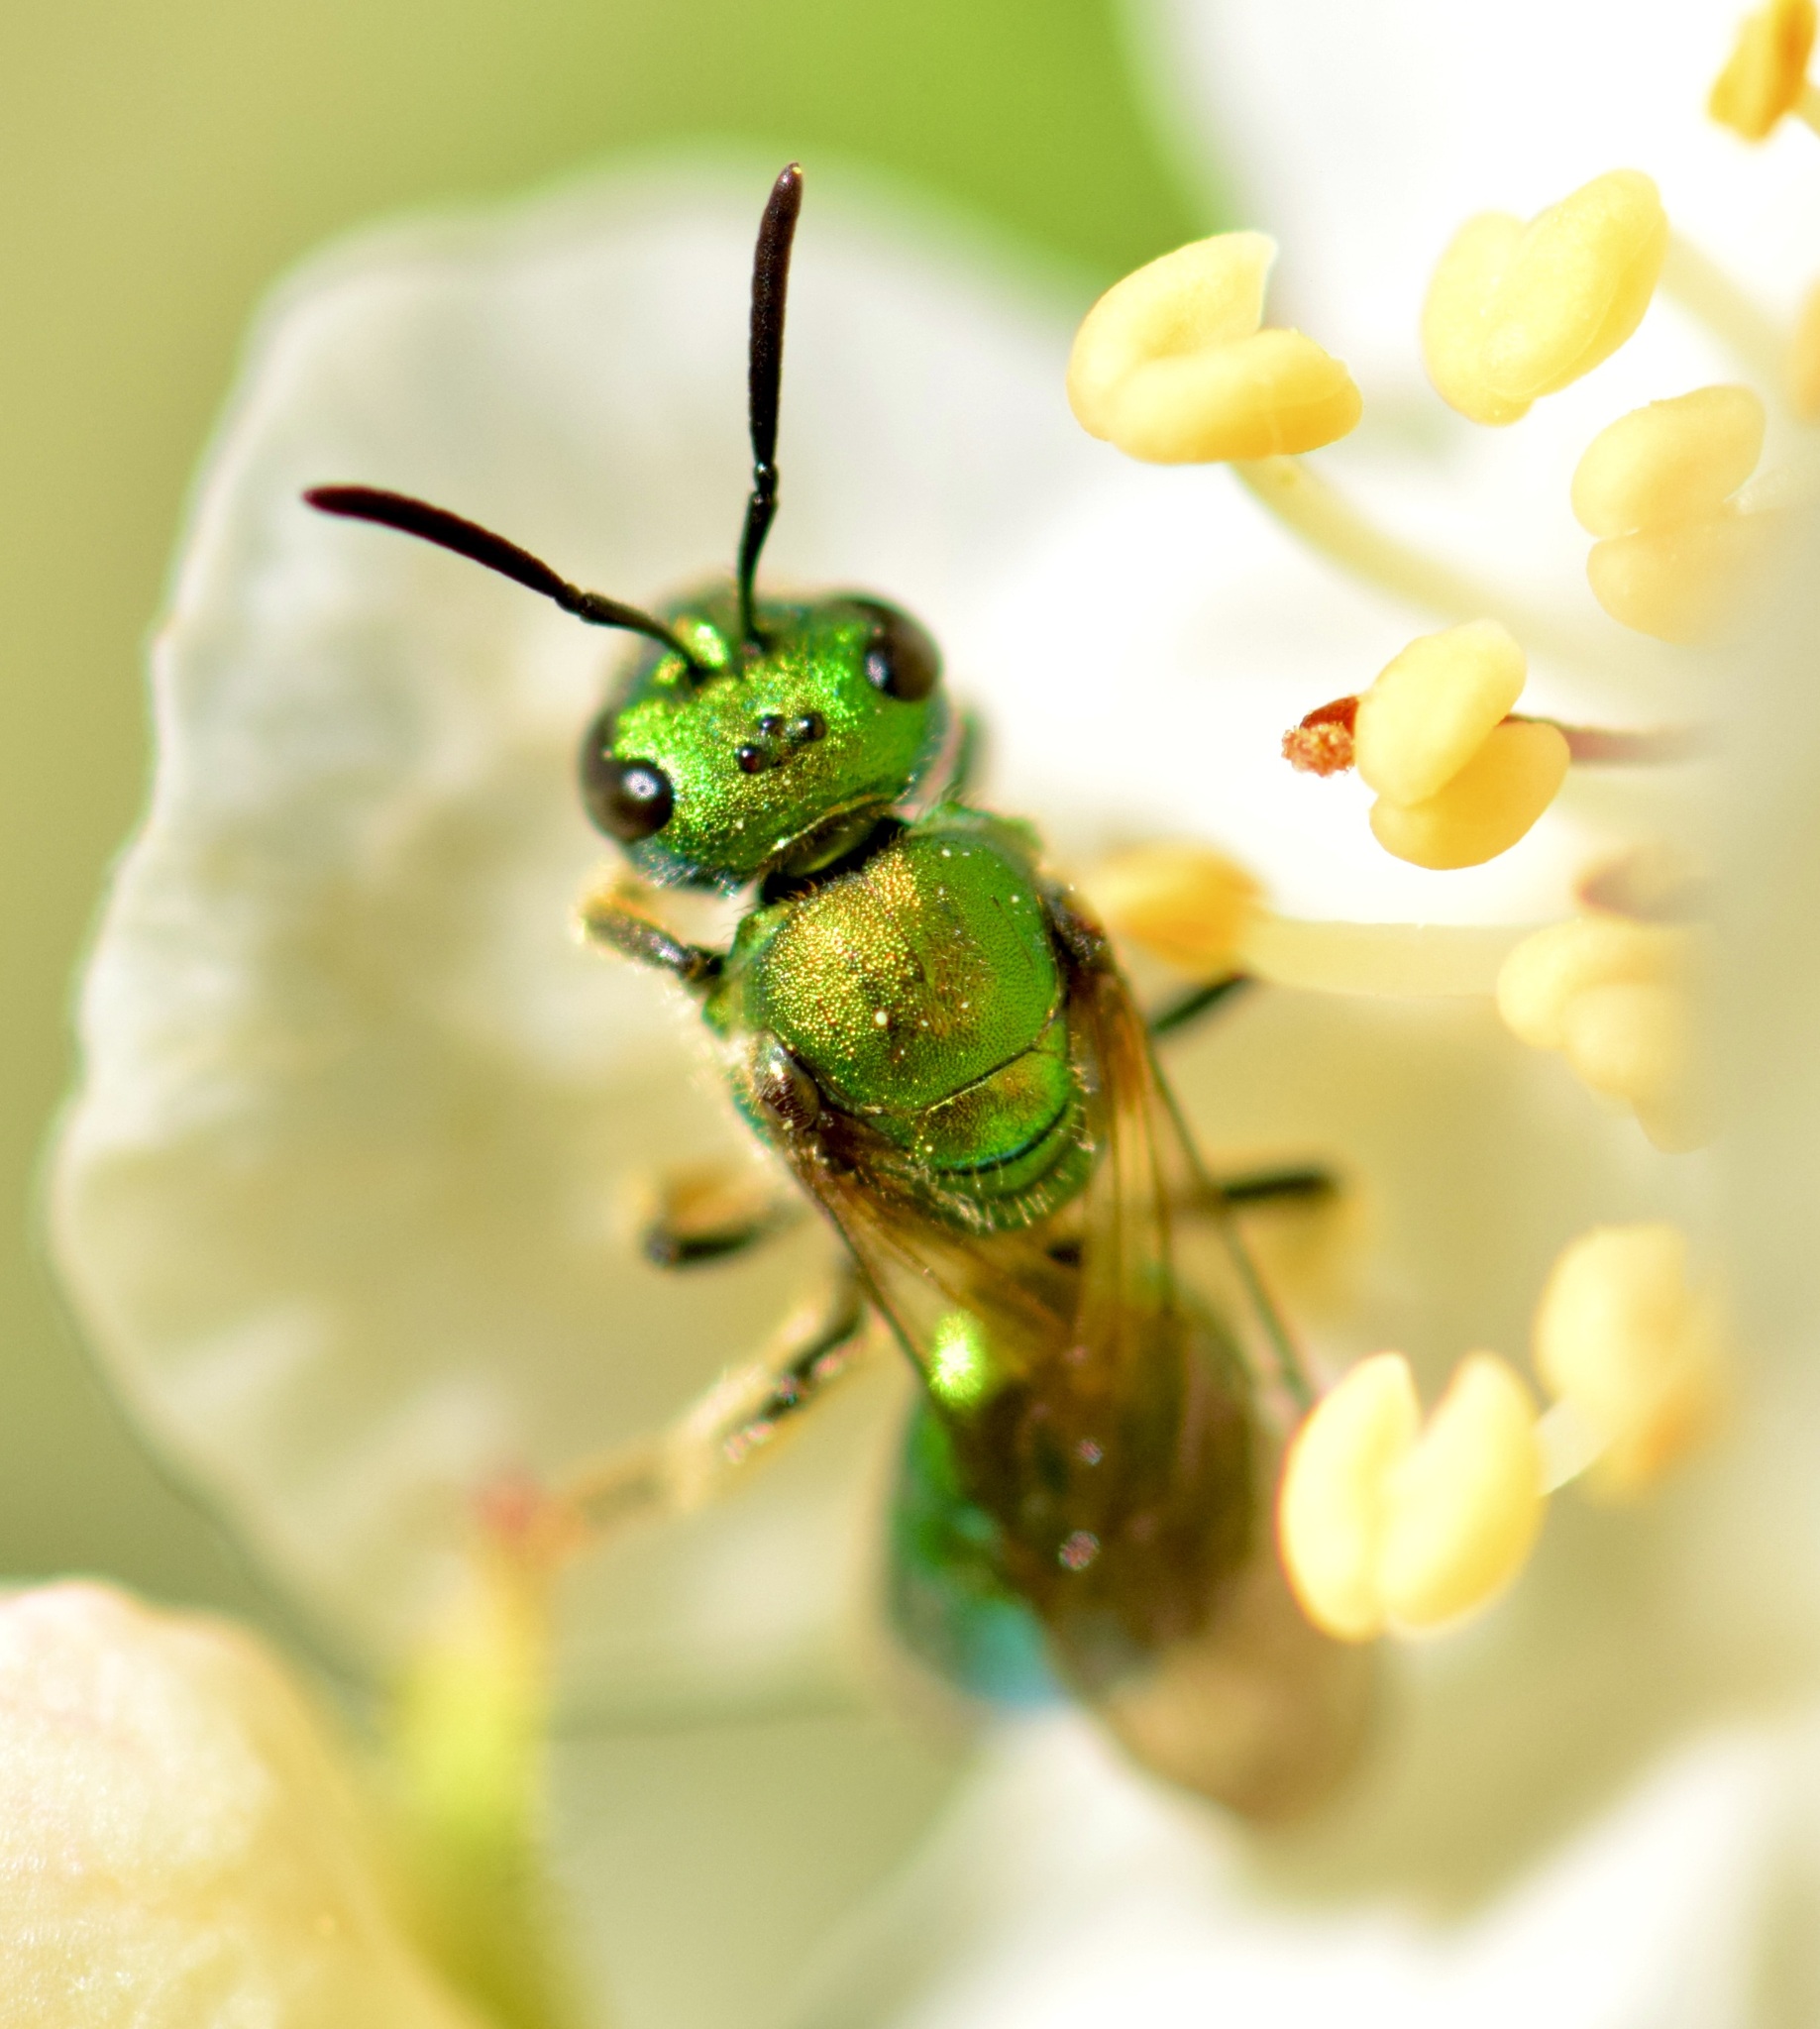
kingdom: Animalia
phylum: Arthropoda
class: Insecta
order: Hymenoptera
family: Halictidae
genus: Augochlora
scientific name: Augochlora pura
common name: Pure green sweat bee
